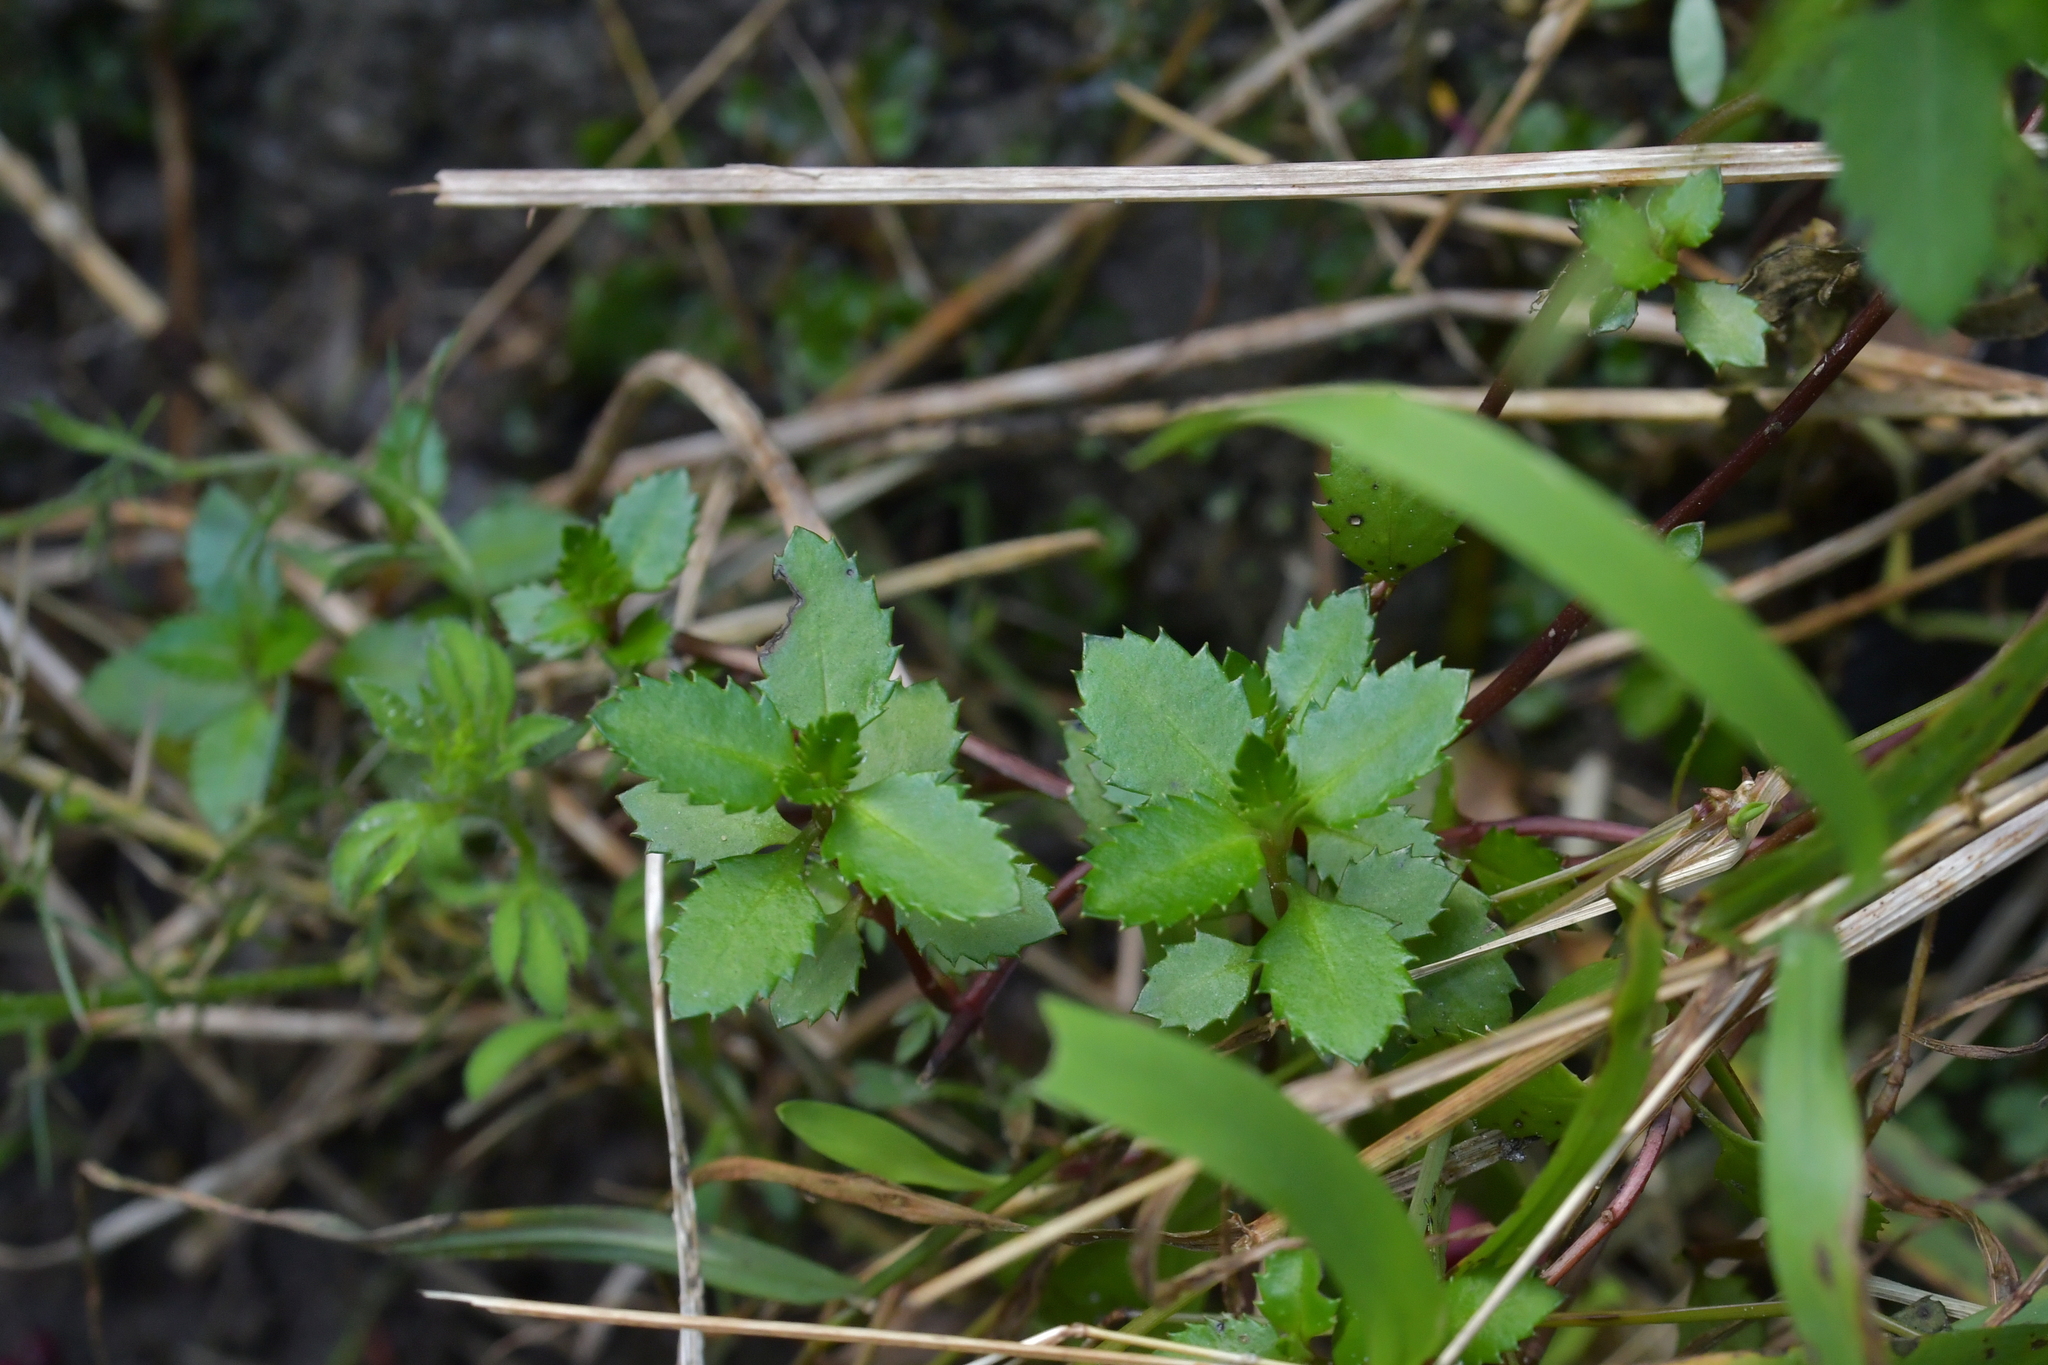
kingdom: Plantae
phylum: Tracheophyta
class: Magnoliopsida
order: Saxifragales
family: Haloragaceae
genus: Haloragis
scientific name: Haloragis erecta
